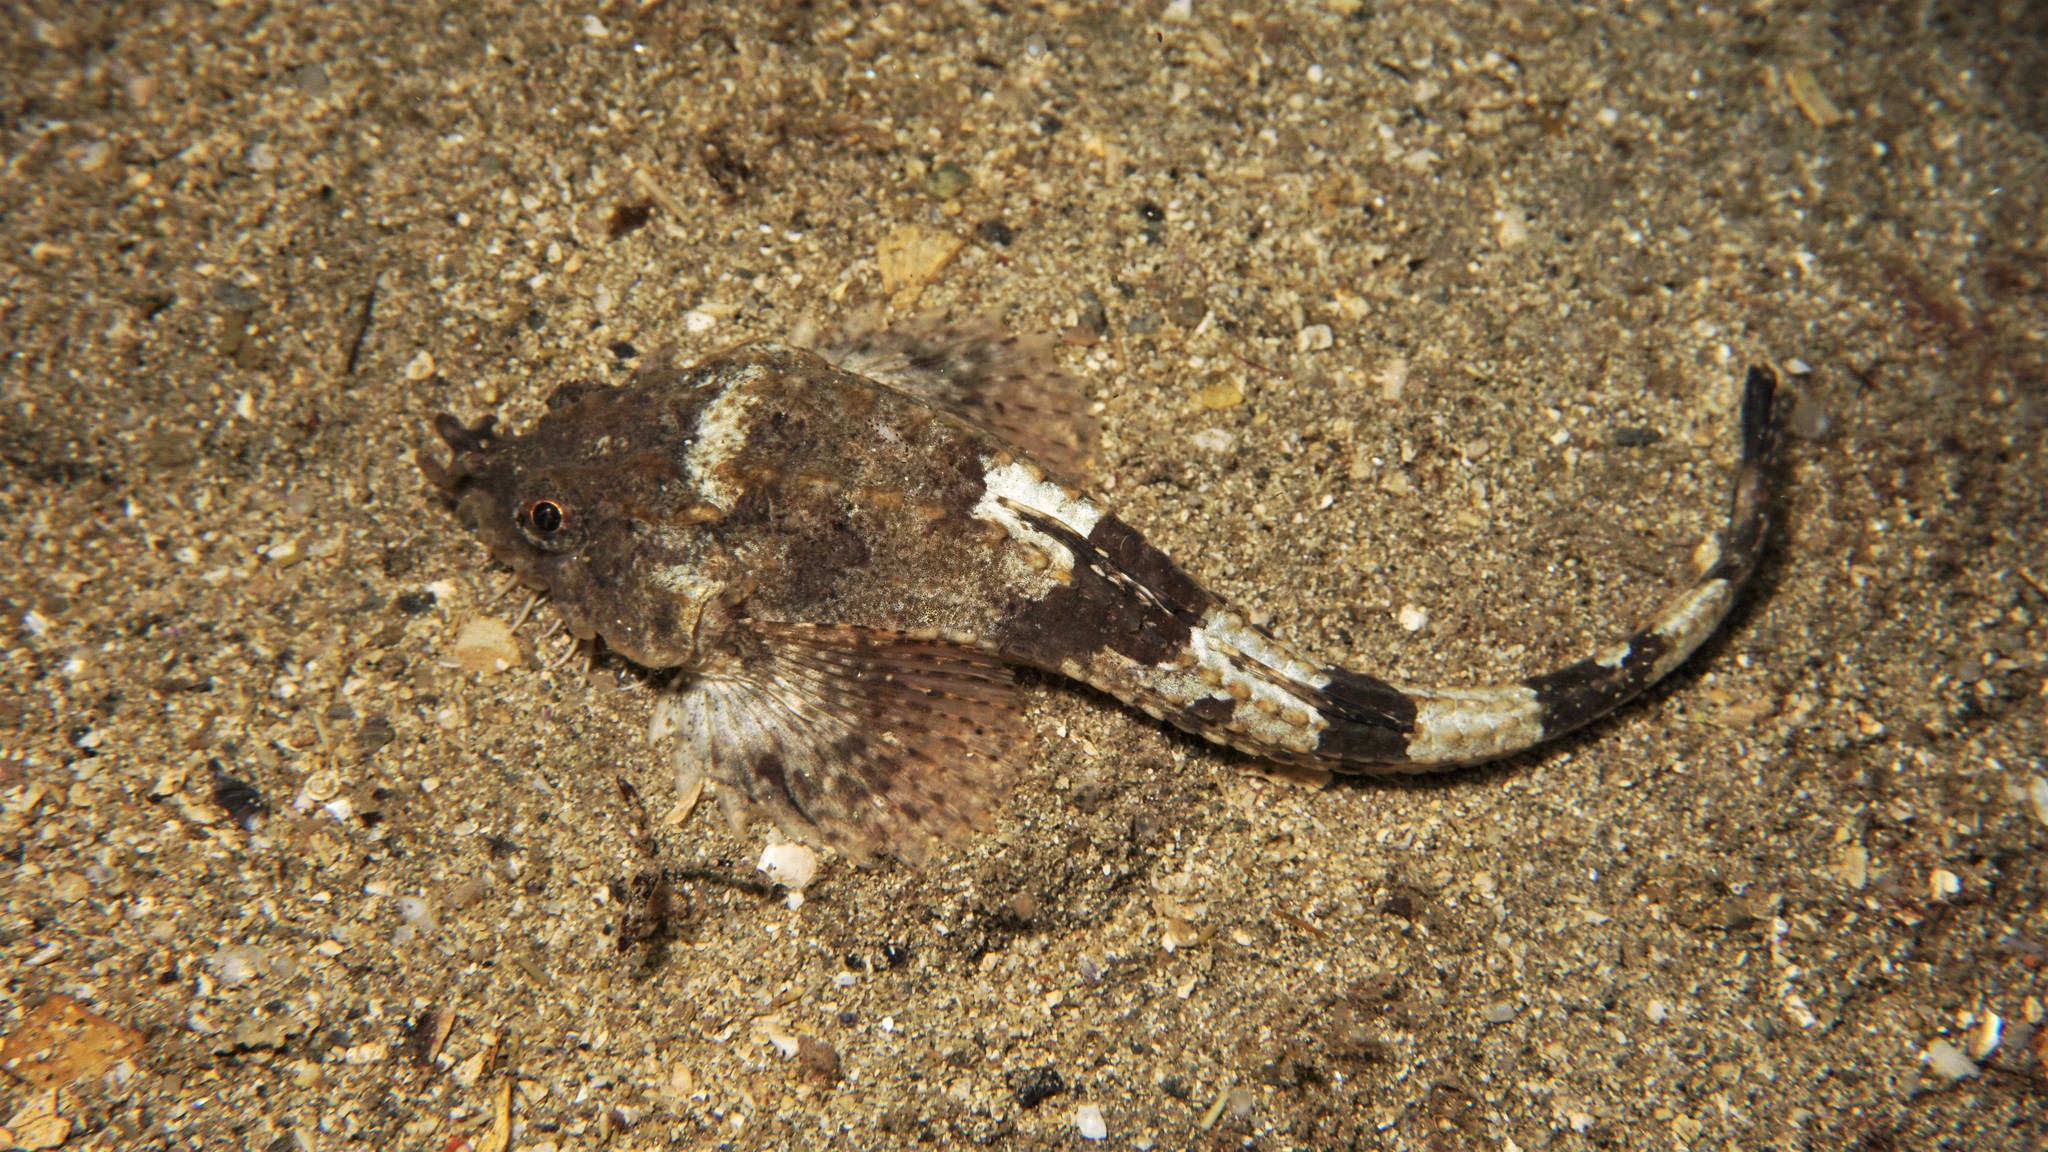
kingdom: Animalia
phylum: Chordata
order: Scorpaeniformes
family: Agonidae
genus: Agonus
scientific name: Agonus cataphractus
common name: Pogge
